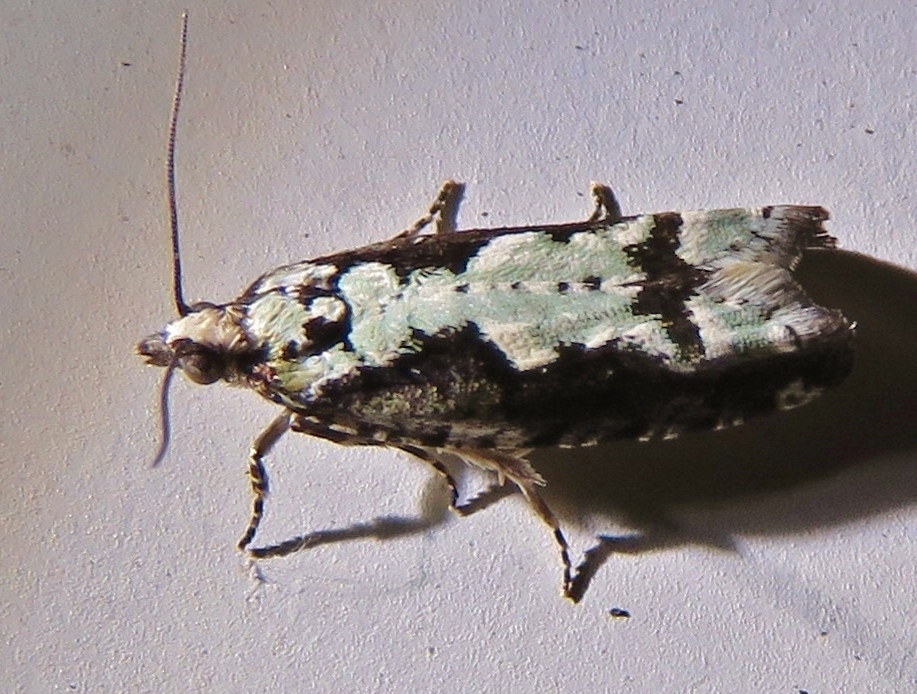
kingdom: Animalia
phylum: Arthropoda
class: Insecta
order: Lepidoptera
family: Tortricidae
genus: Chimoptesis
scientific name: Chimoptesis pennsylvaniana
